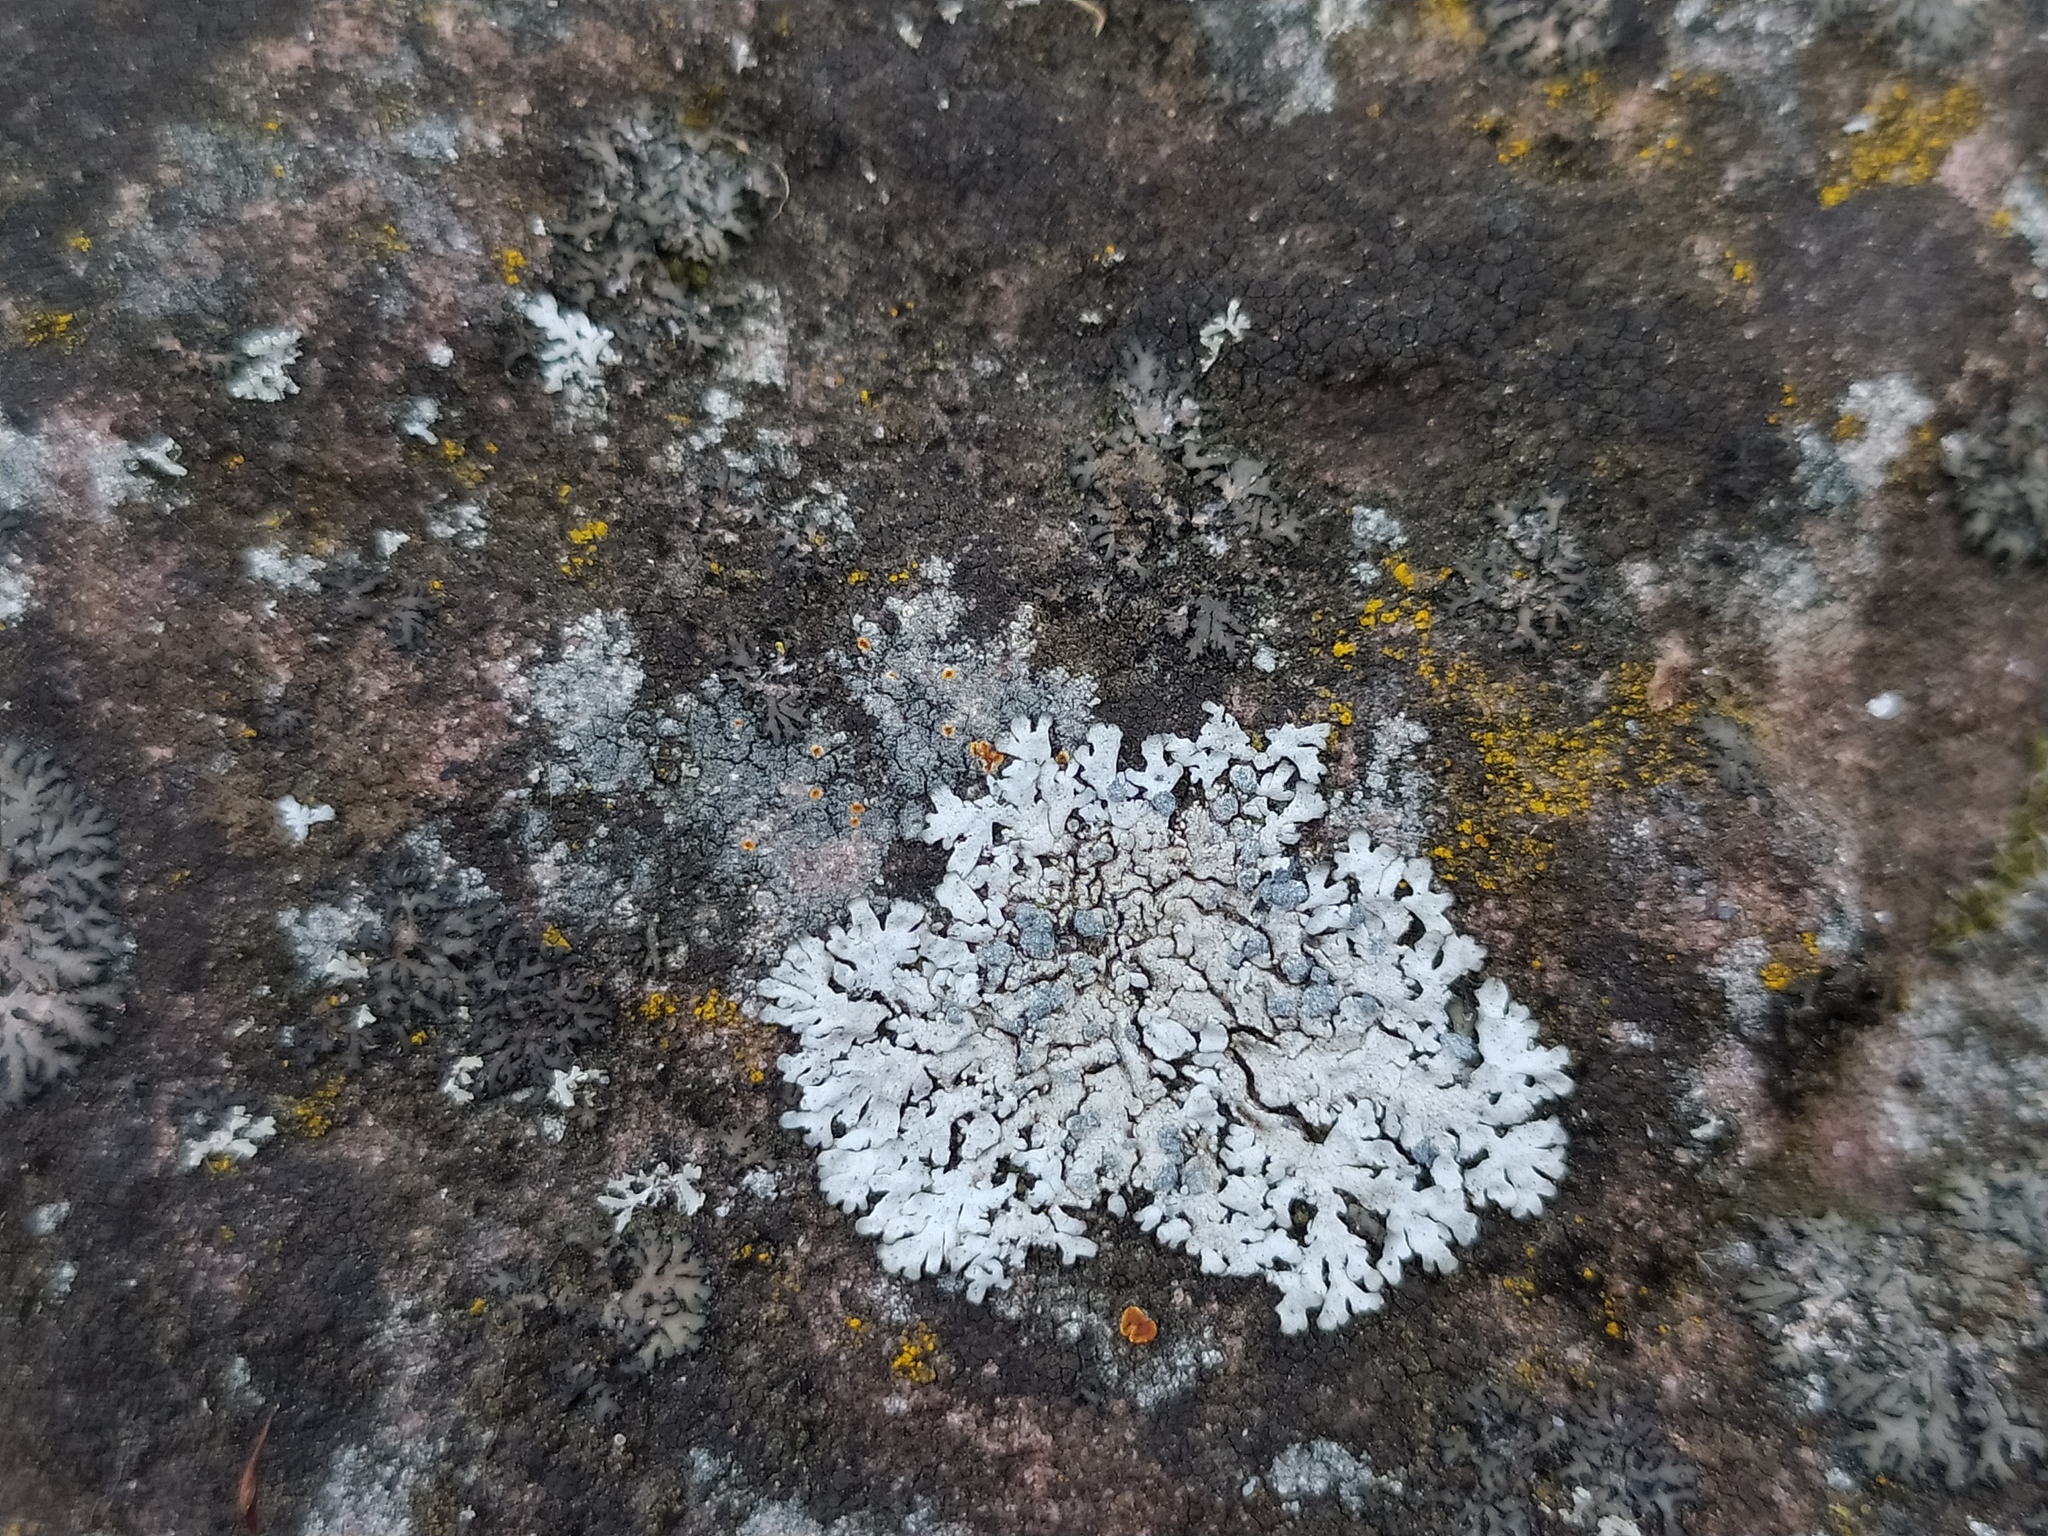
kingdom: Fungi
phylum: Ascomycota
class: Lecanoromycetes
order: Caliciales
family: Physciaceae
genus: Physcia
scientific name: Physcia caesia
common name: Blue-gray rosette lichen
